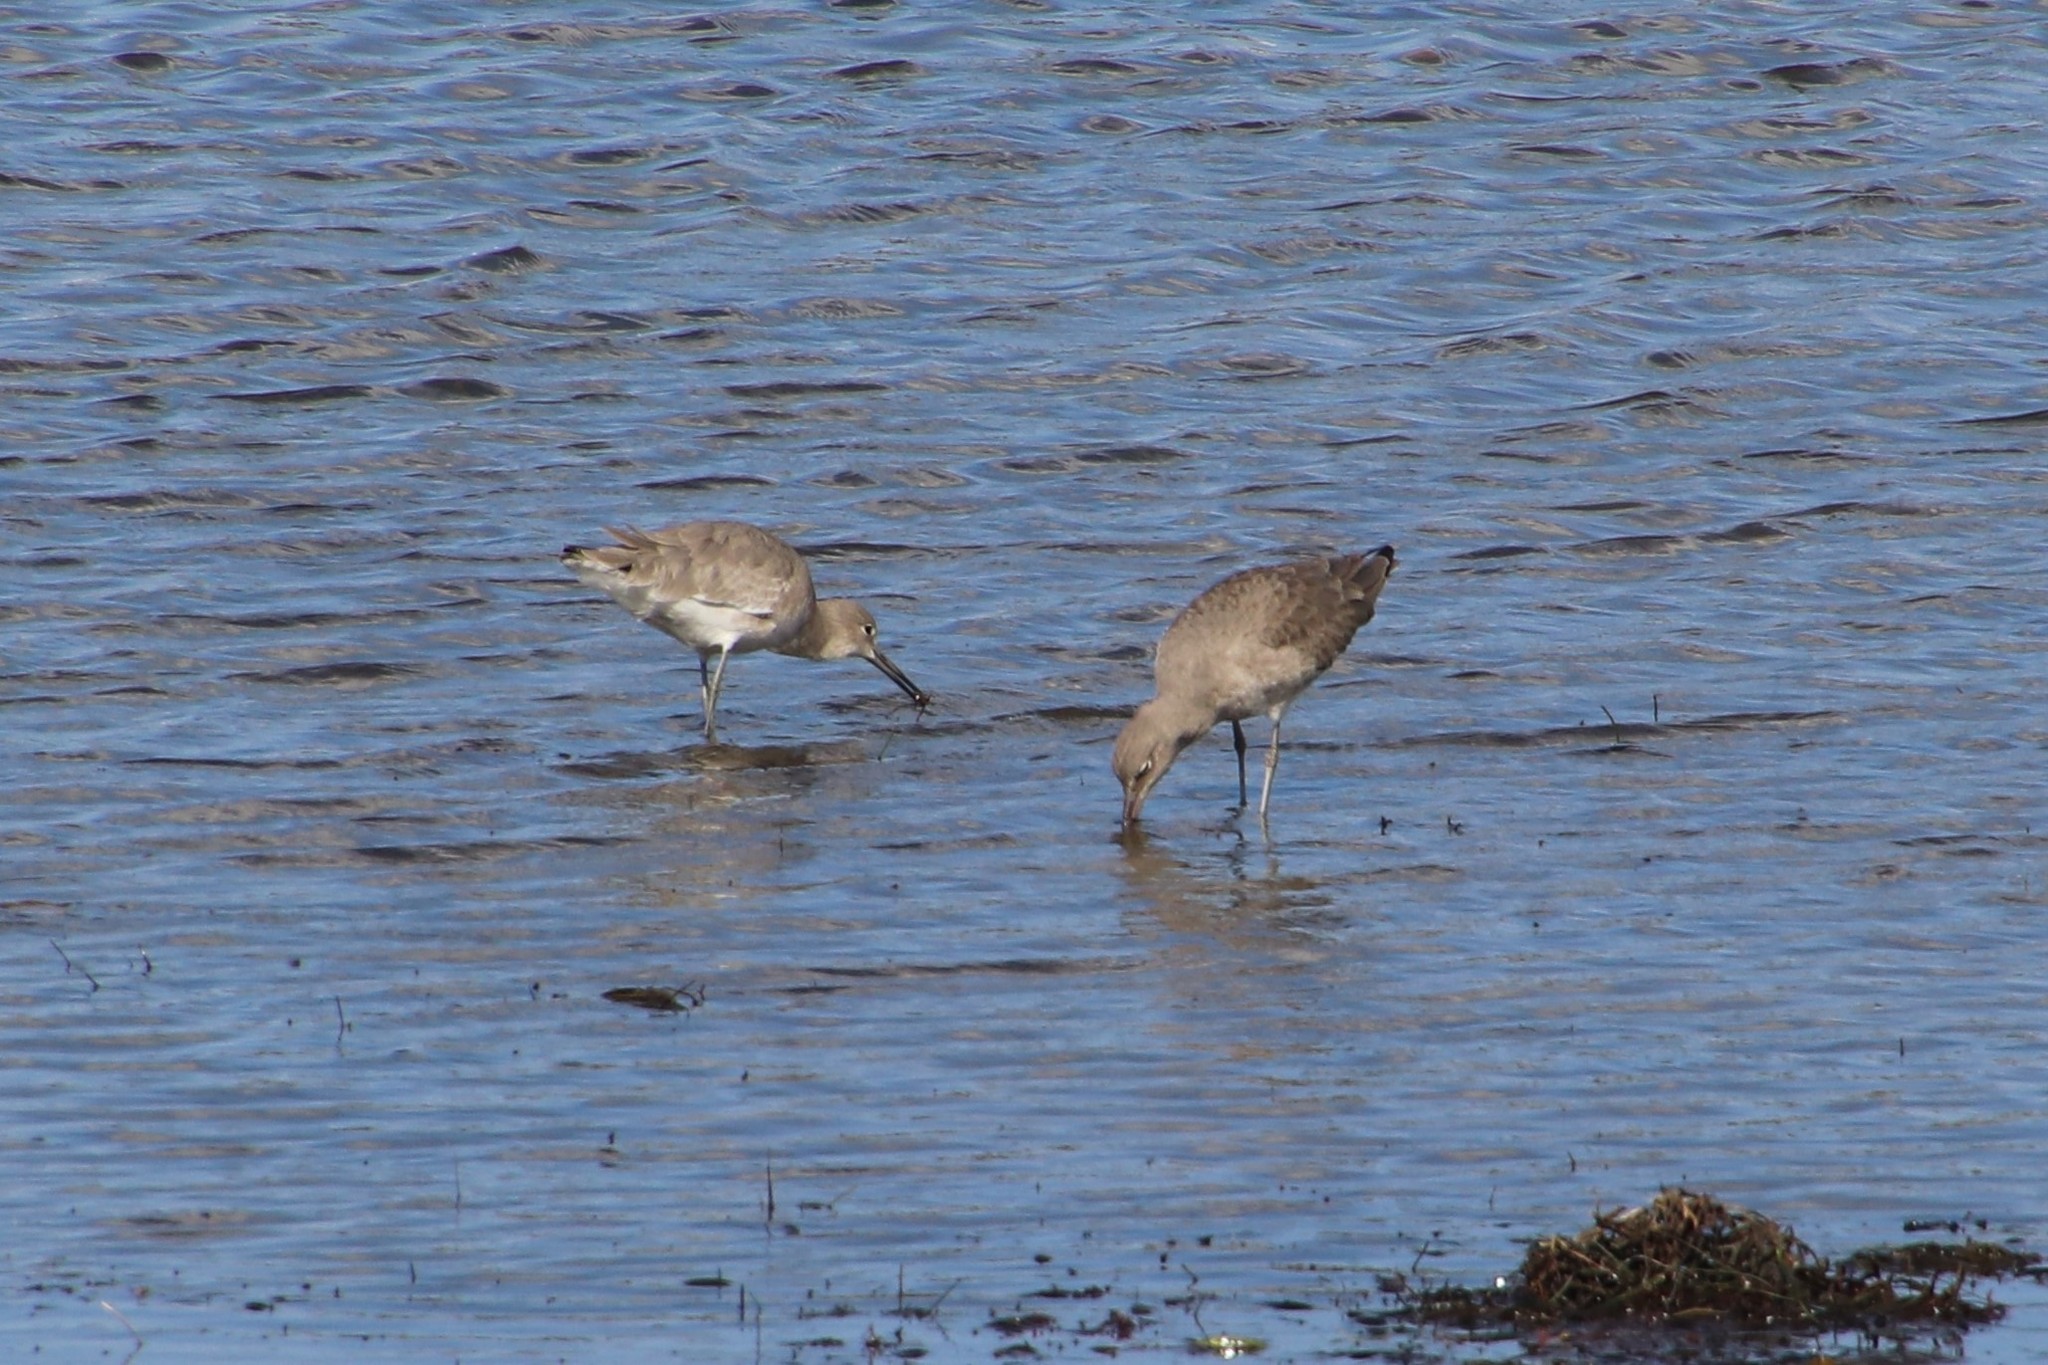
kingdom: Animalia
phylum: Chordata
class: Aves
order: Charadriiformes
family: Scolopacidae
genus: Tringa
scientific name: Tringa semipalmata
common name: Willet
